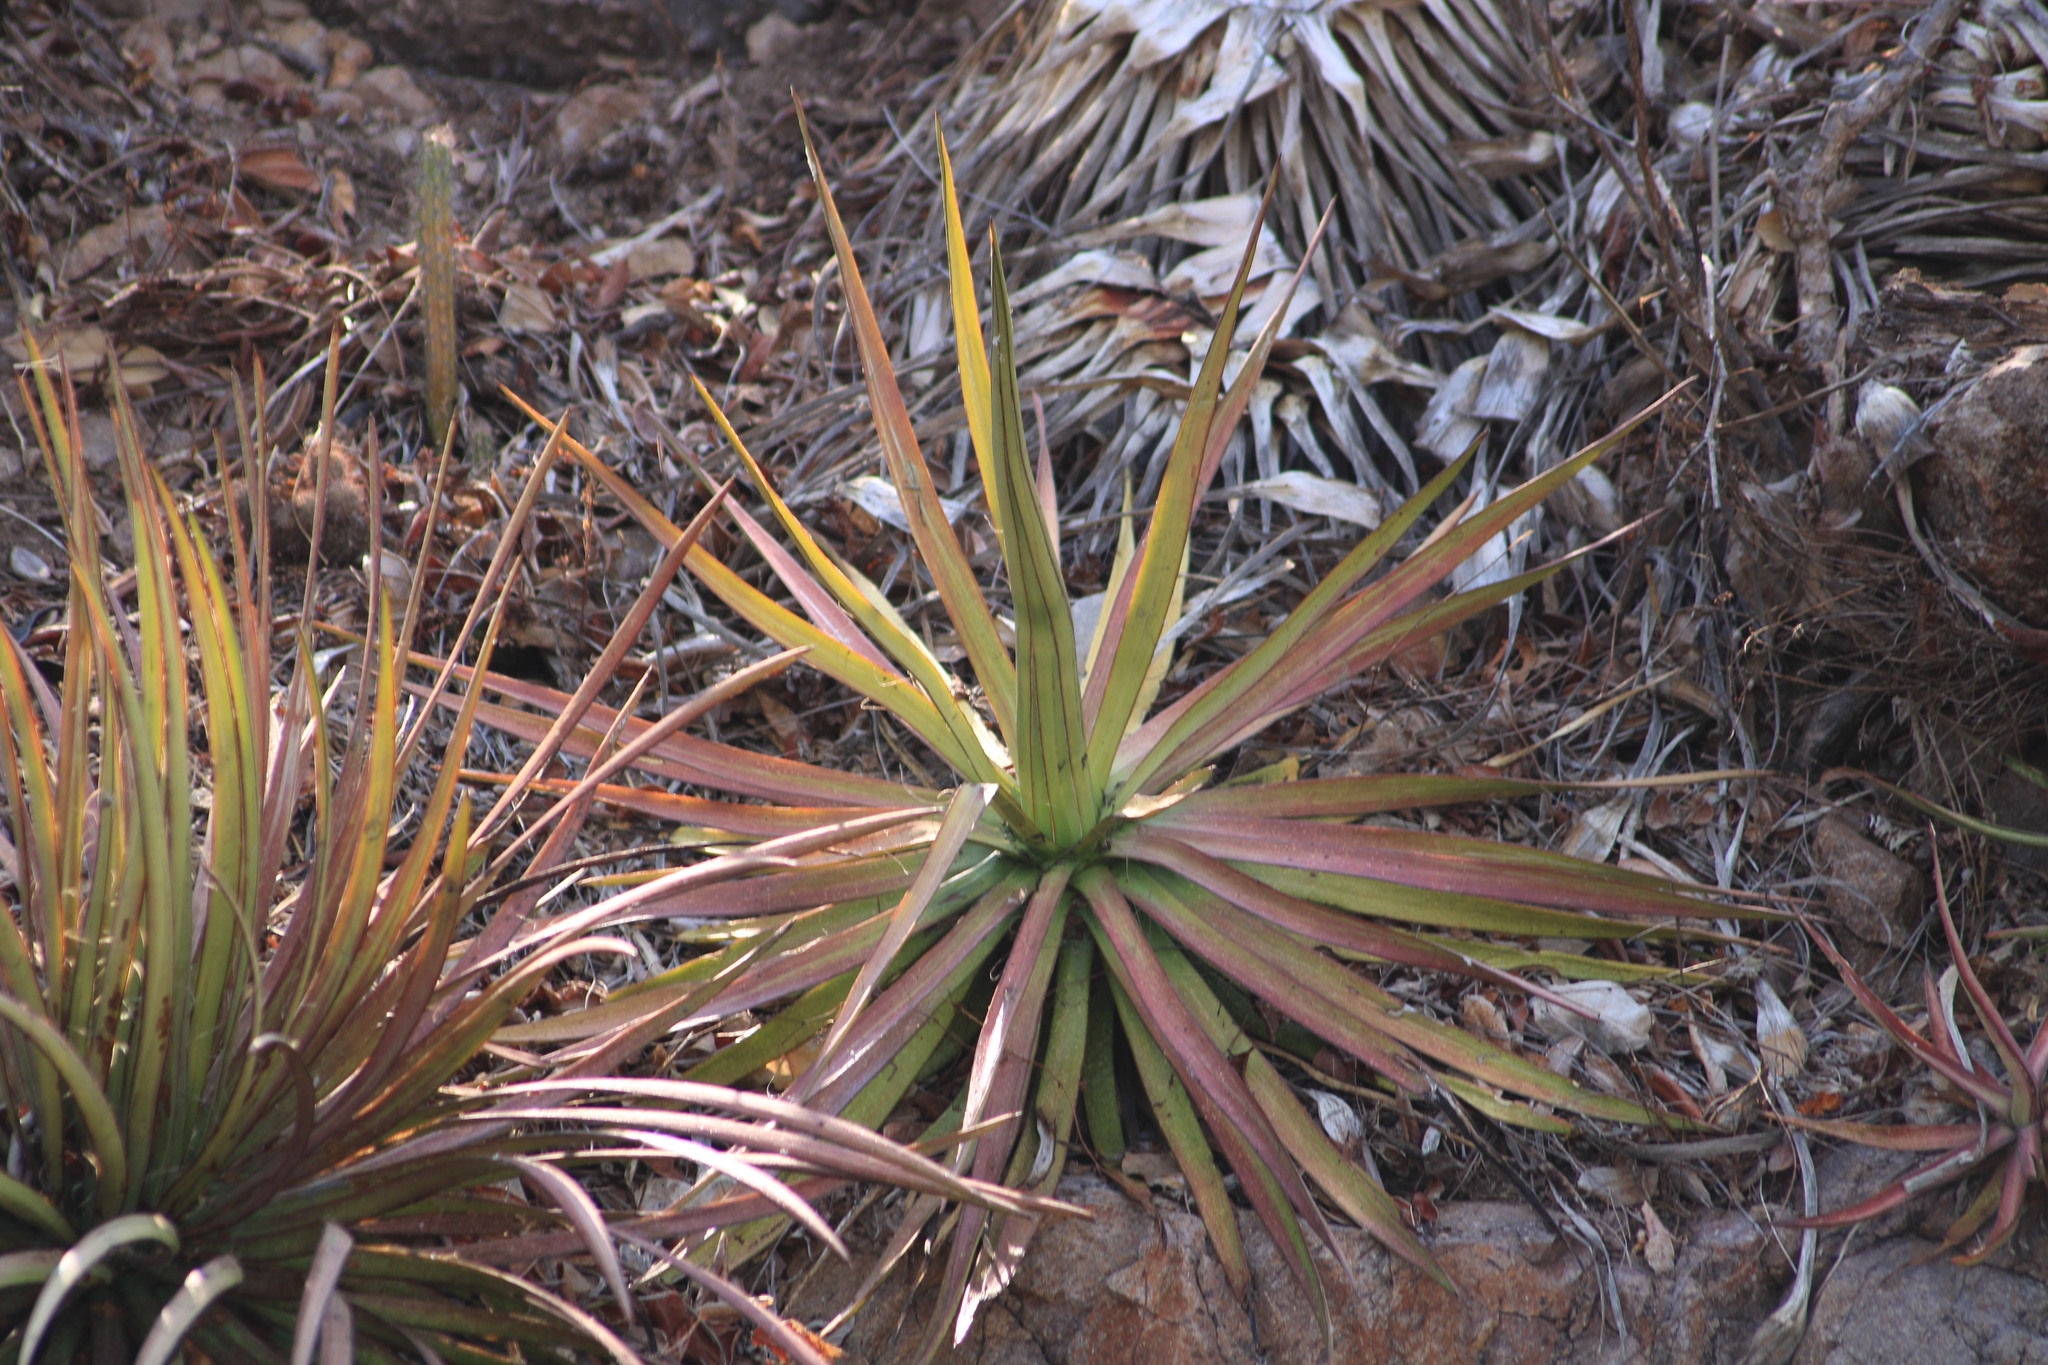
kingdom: Plantae
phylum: Tracheophyta
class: Liliopsida
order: Asparagales
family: Asparagaceae
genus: Agave
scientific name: Agave ortgiesiana
